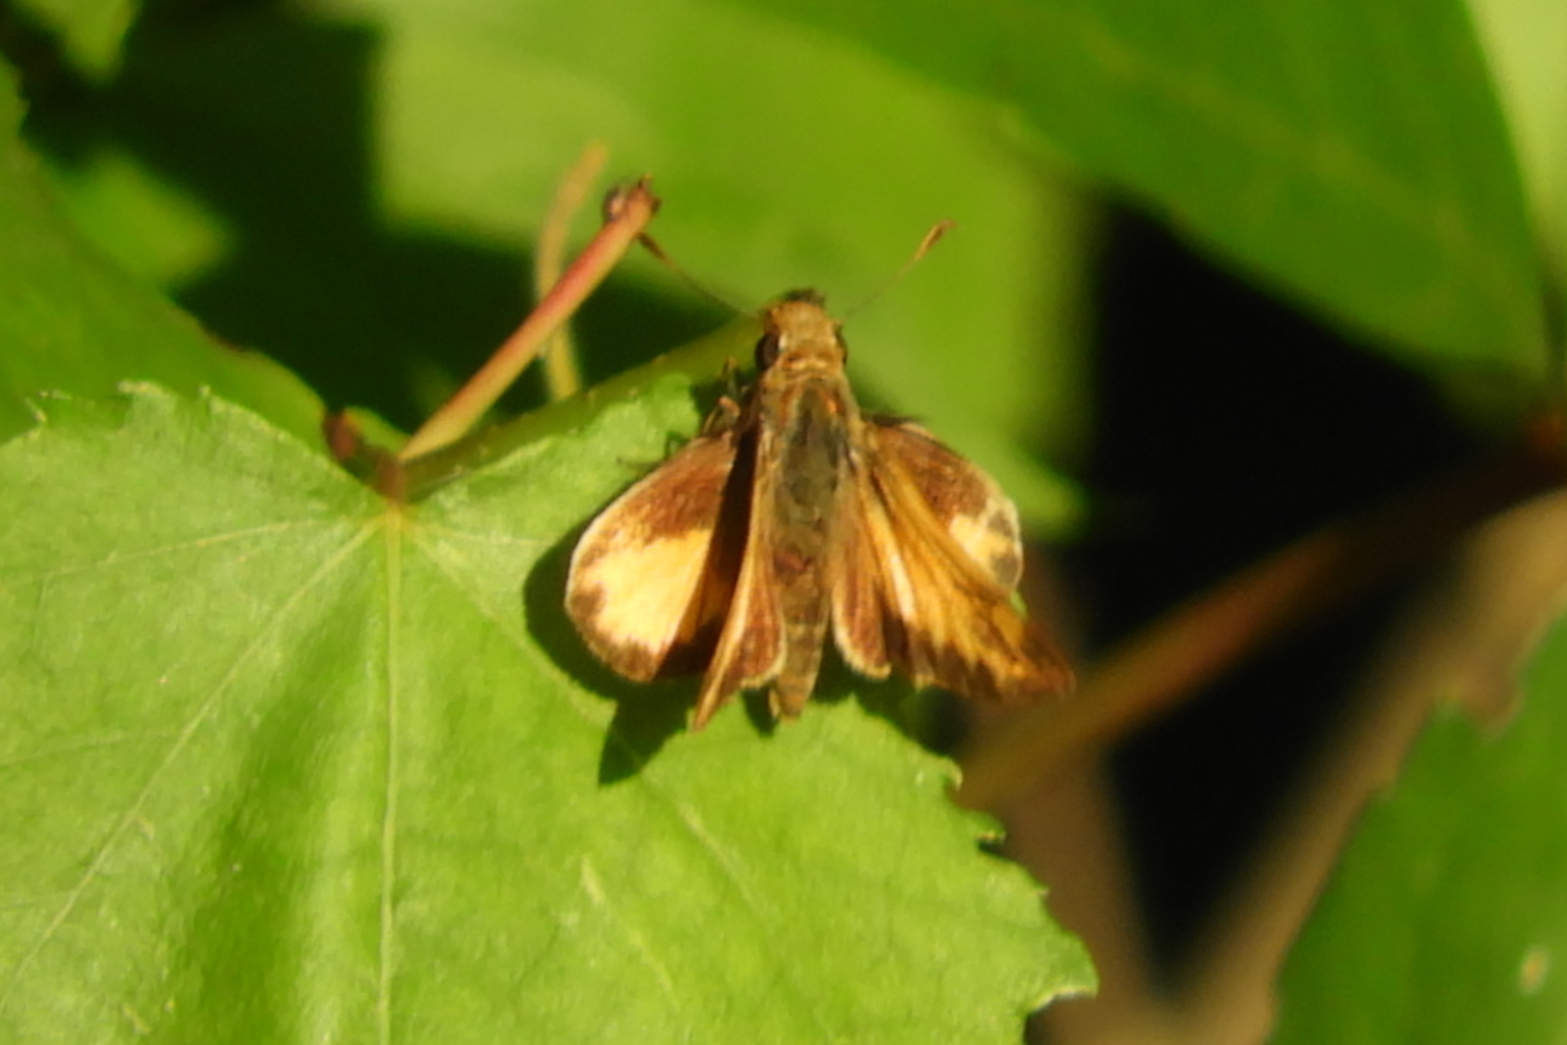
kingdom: Animalia
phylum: Arthropoda
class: Insecta
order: Lepidoptera
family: Hesperiidae
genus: Lon
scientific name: Lon zabulon
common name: Zabulon skipper
